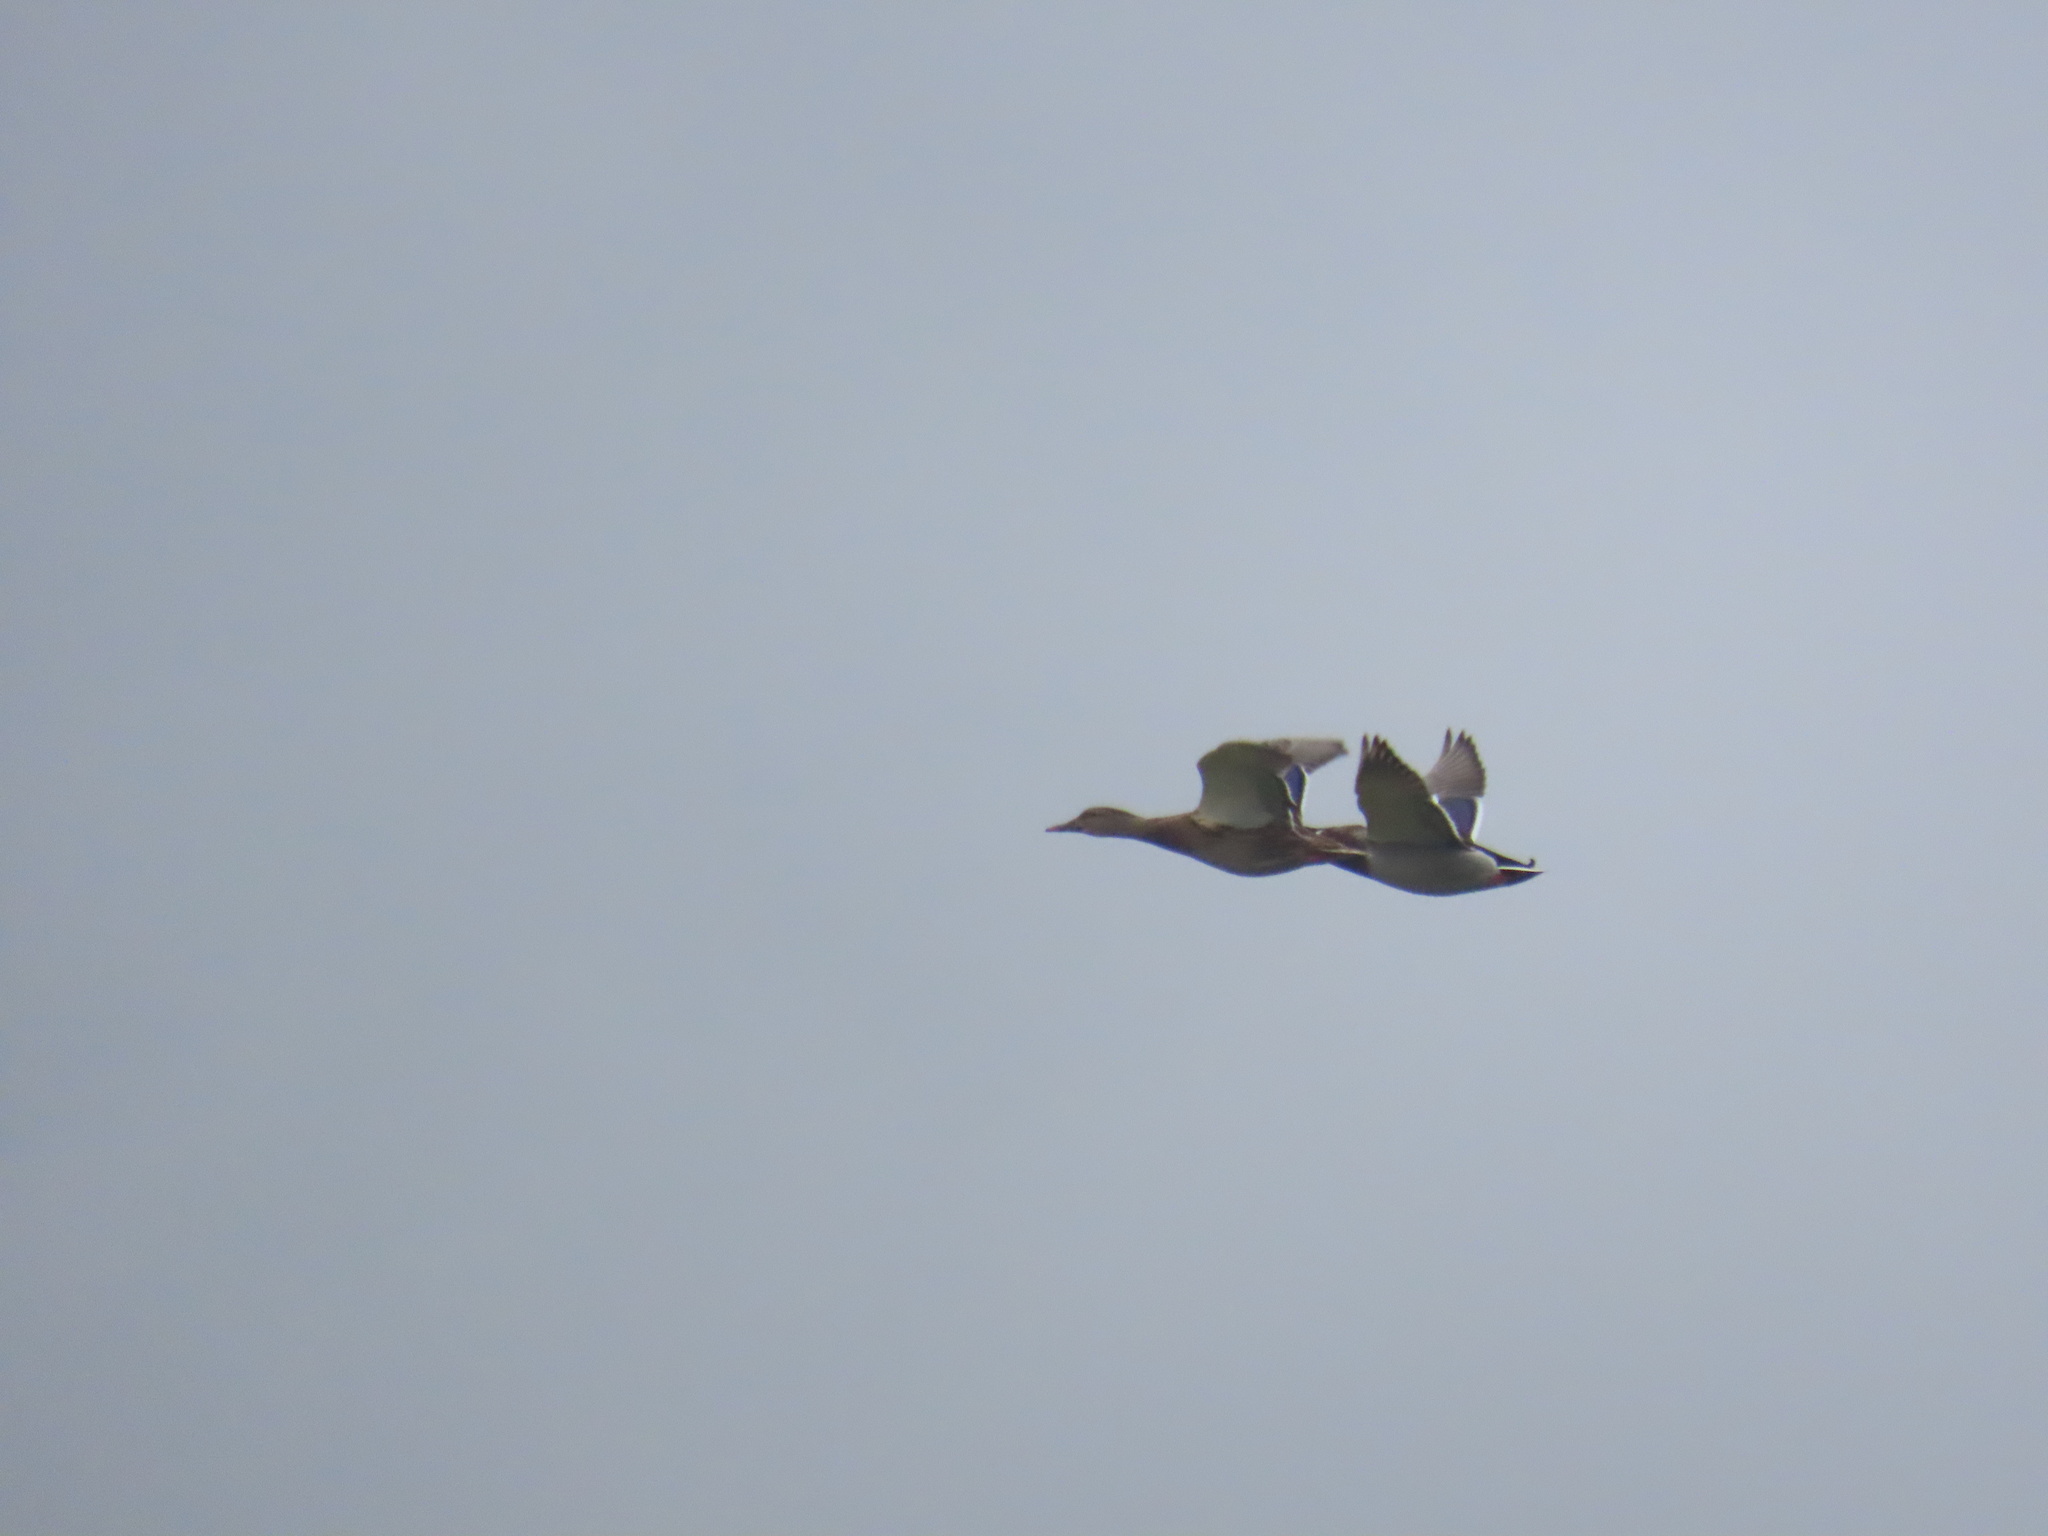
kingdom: Animalia
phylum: Chordata
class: Aves
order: Anseriformes
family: Anatidae
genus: Anas
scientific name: Anas platyrhynchos
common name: Mallard
